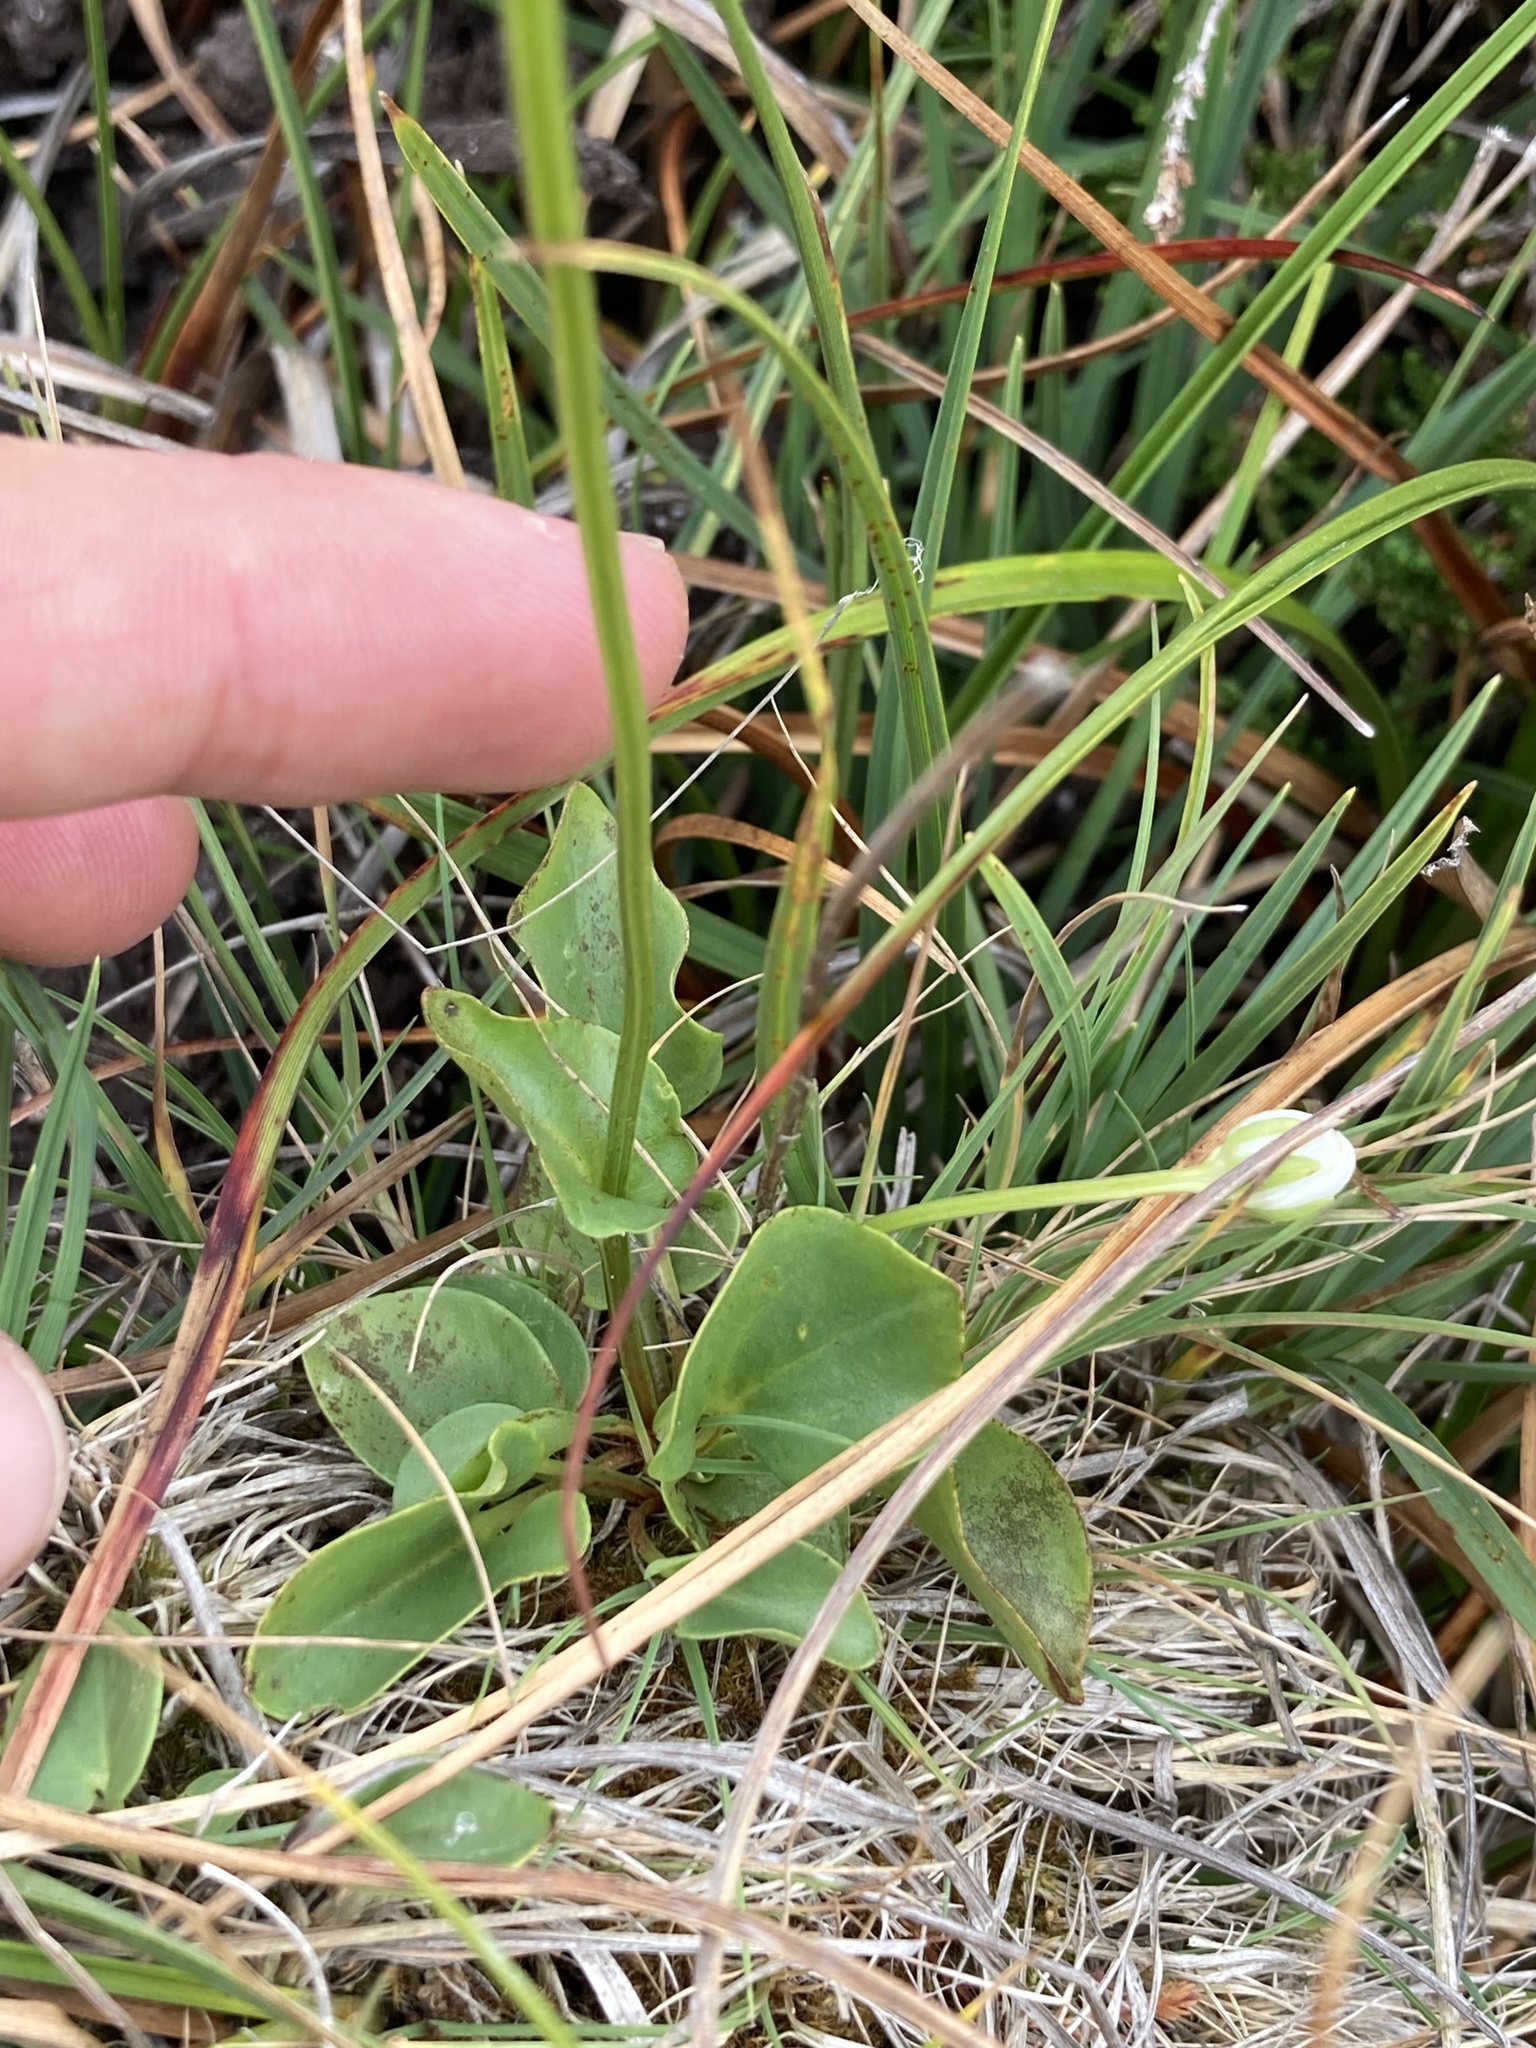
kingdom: Plantae
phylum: Tracheophyta
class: Magnoliopsida
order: Celastrales
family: Parnassiaceae
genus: Parnassia
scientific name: Parnassia palustris
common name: Grass-of-parnassus
